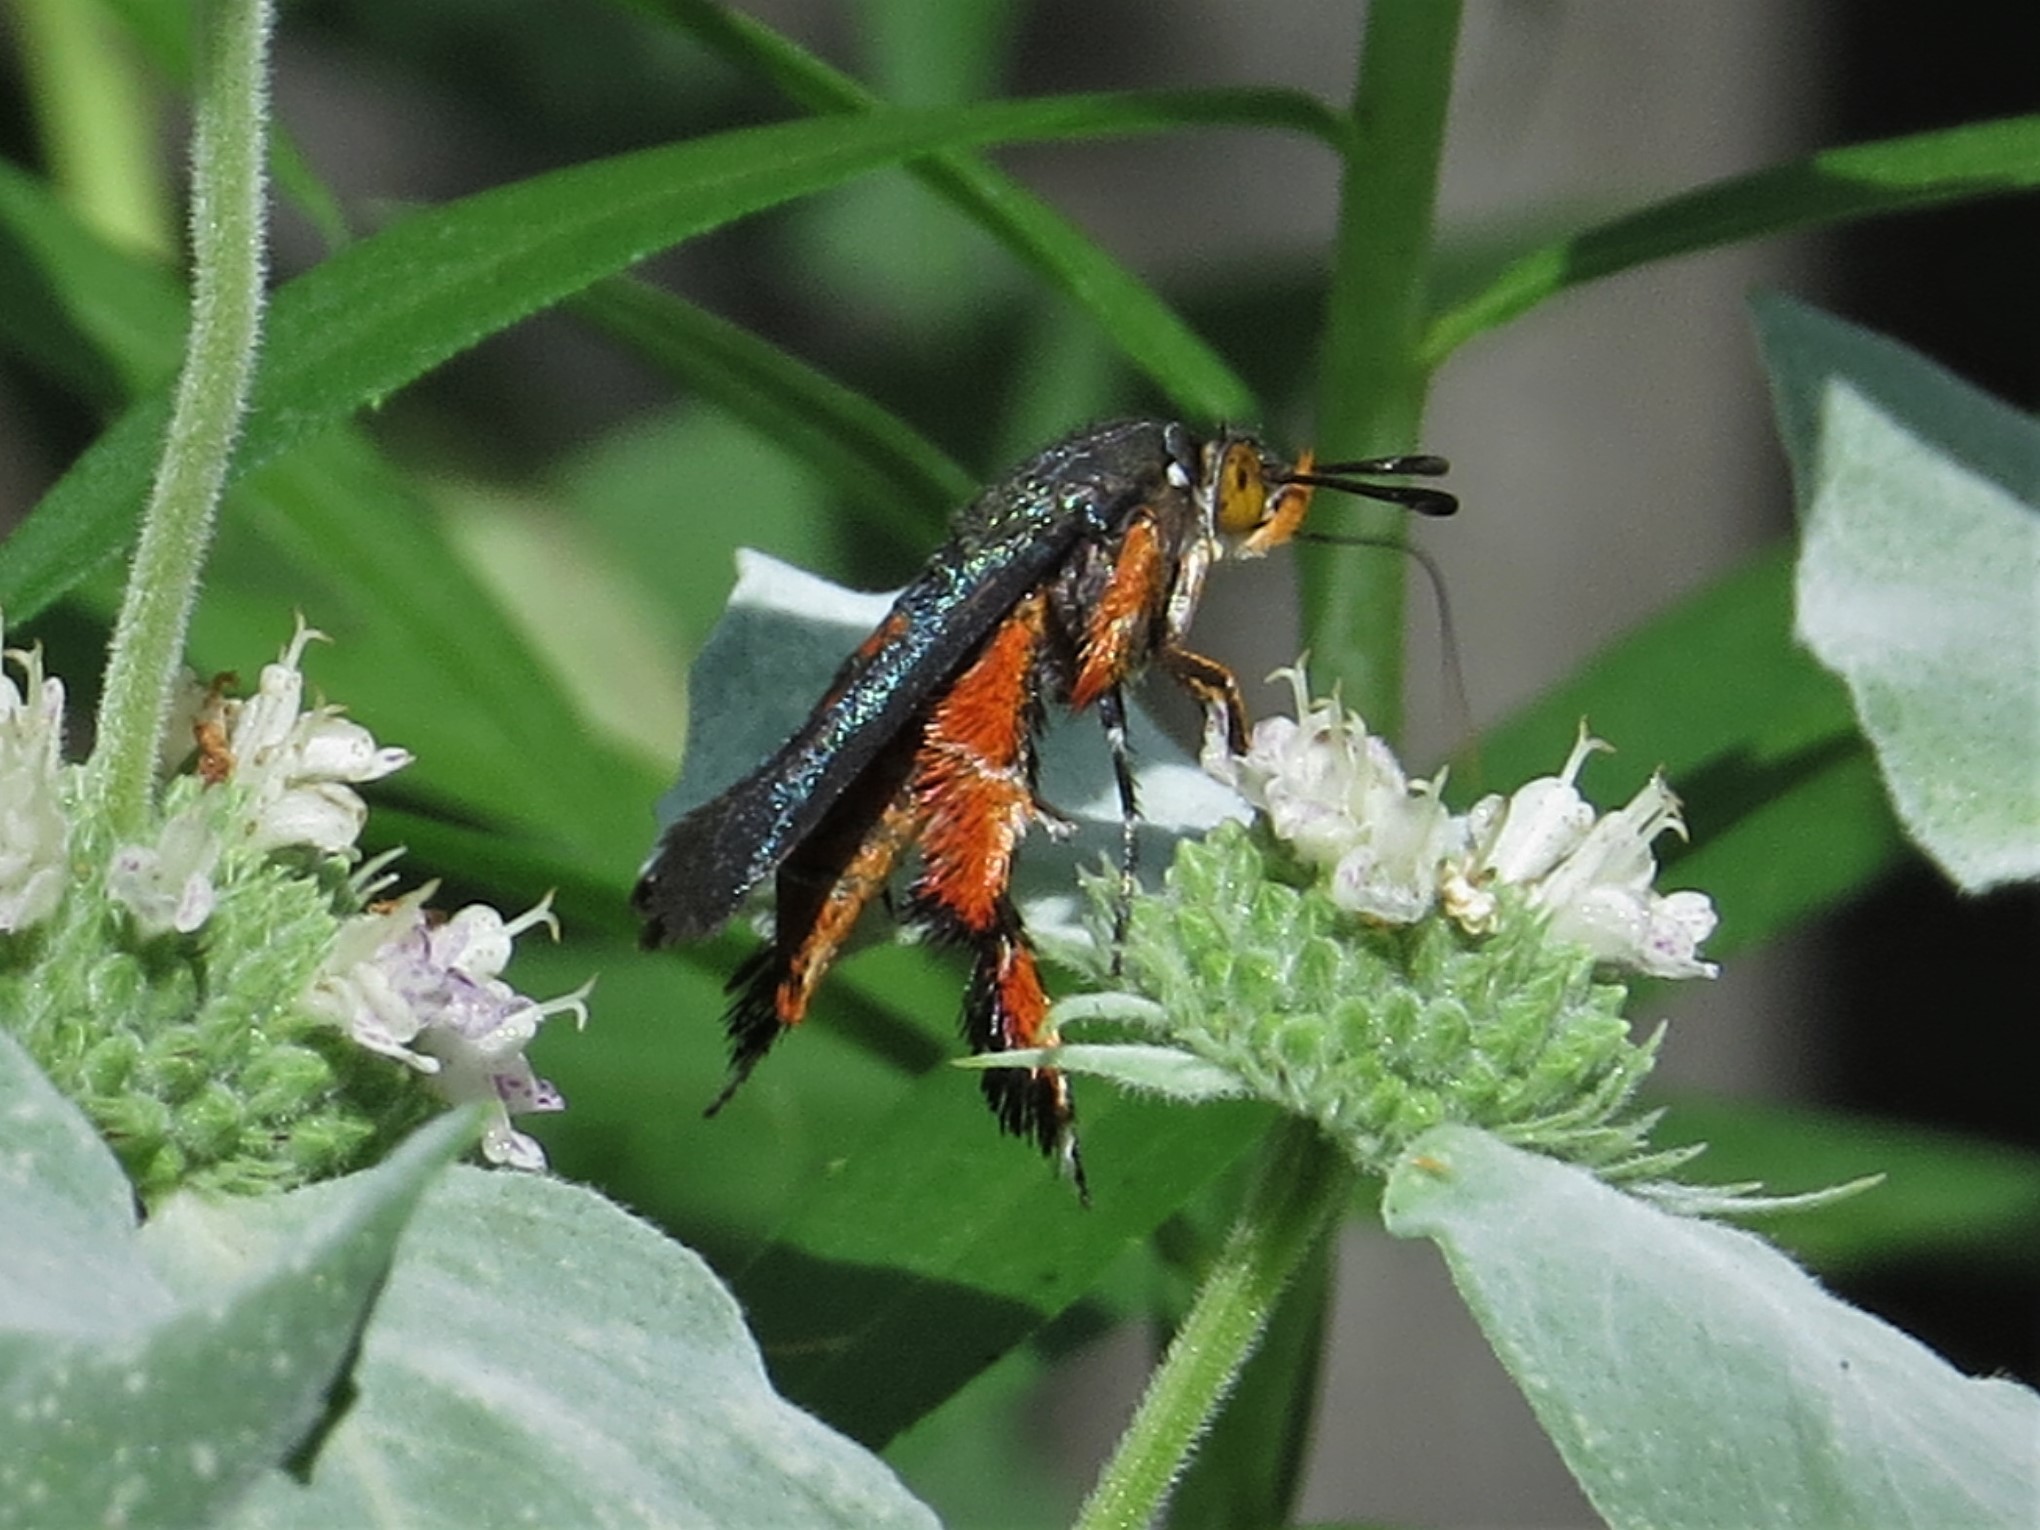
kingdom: Animalia
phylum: Arthropoda
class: Insecta
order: Lepidoptera
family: Sesiidae
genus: Eichlinia
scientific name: Eichlinia cucurbitae
